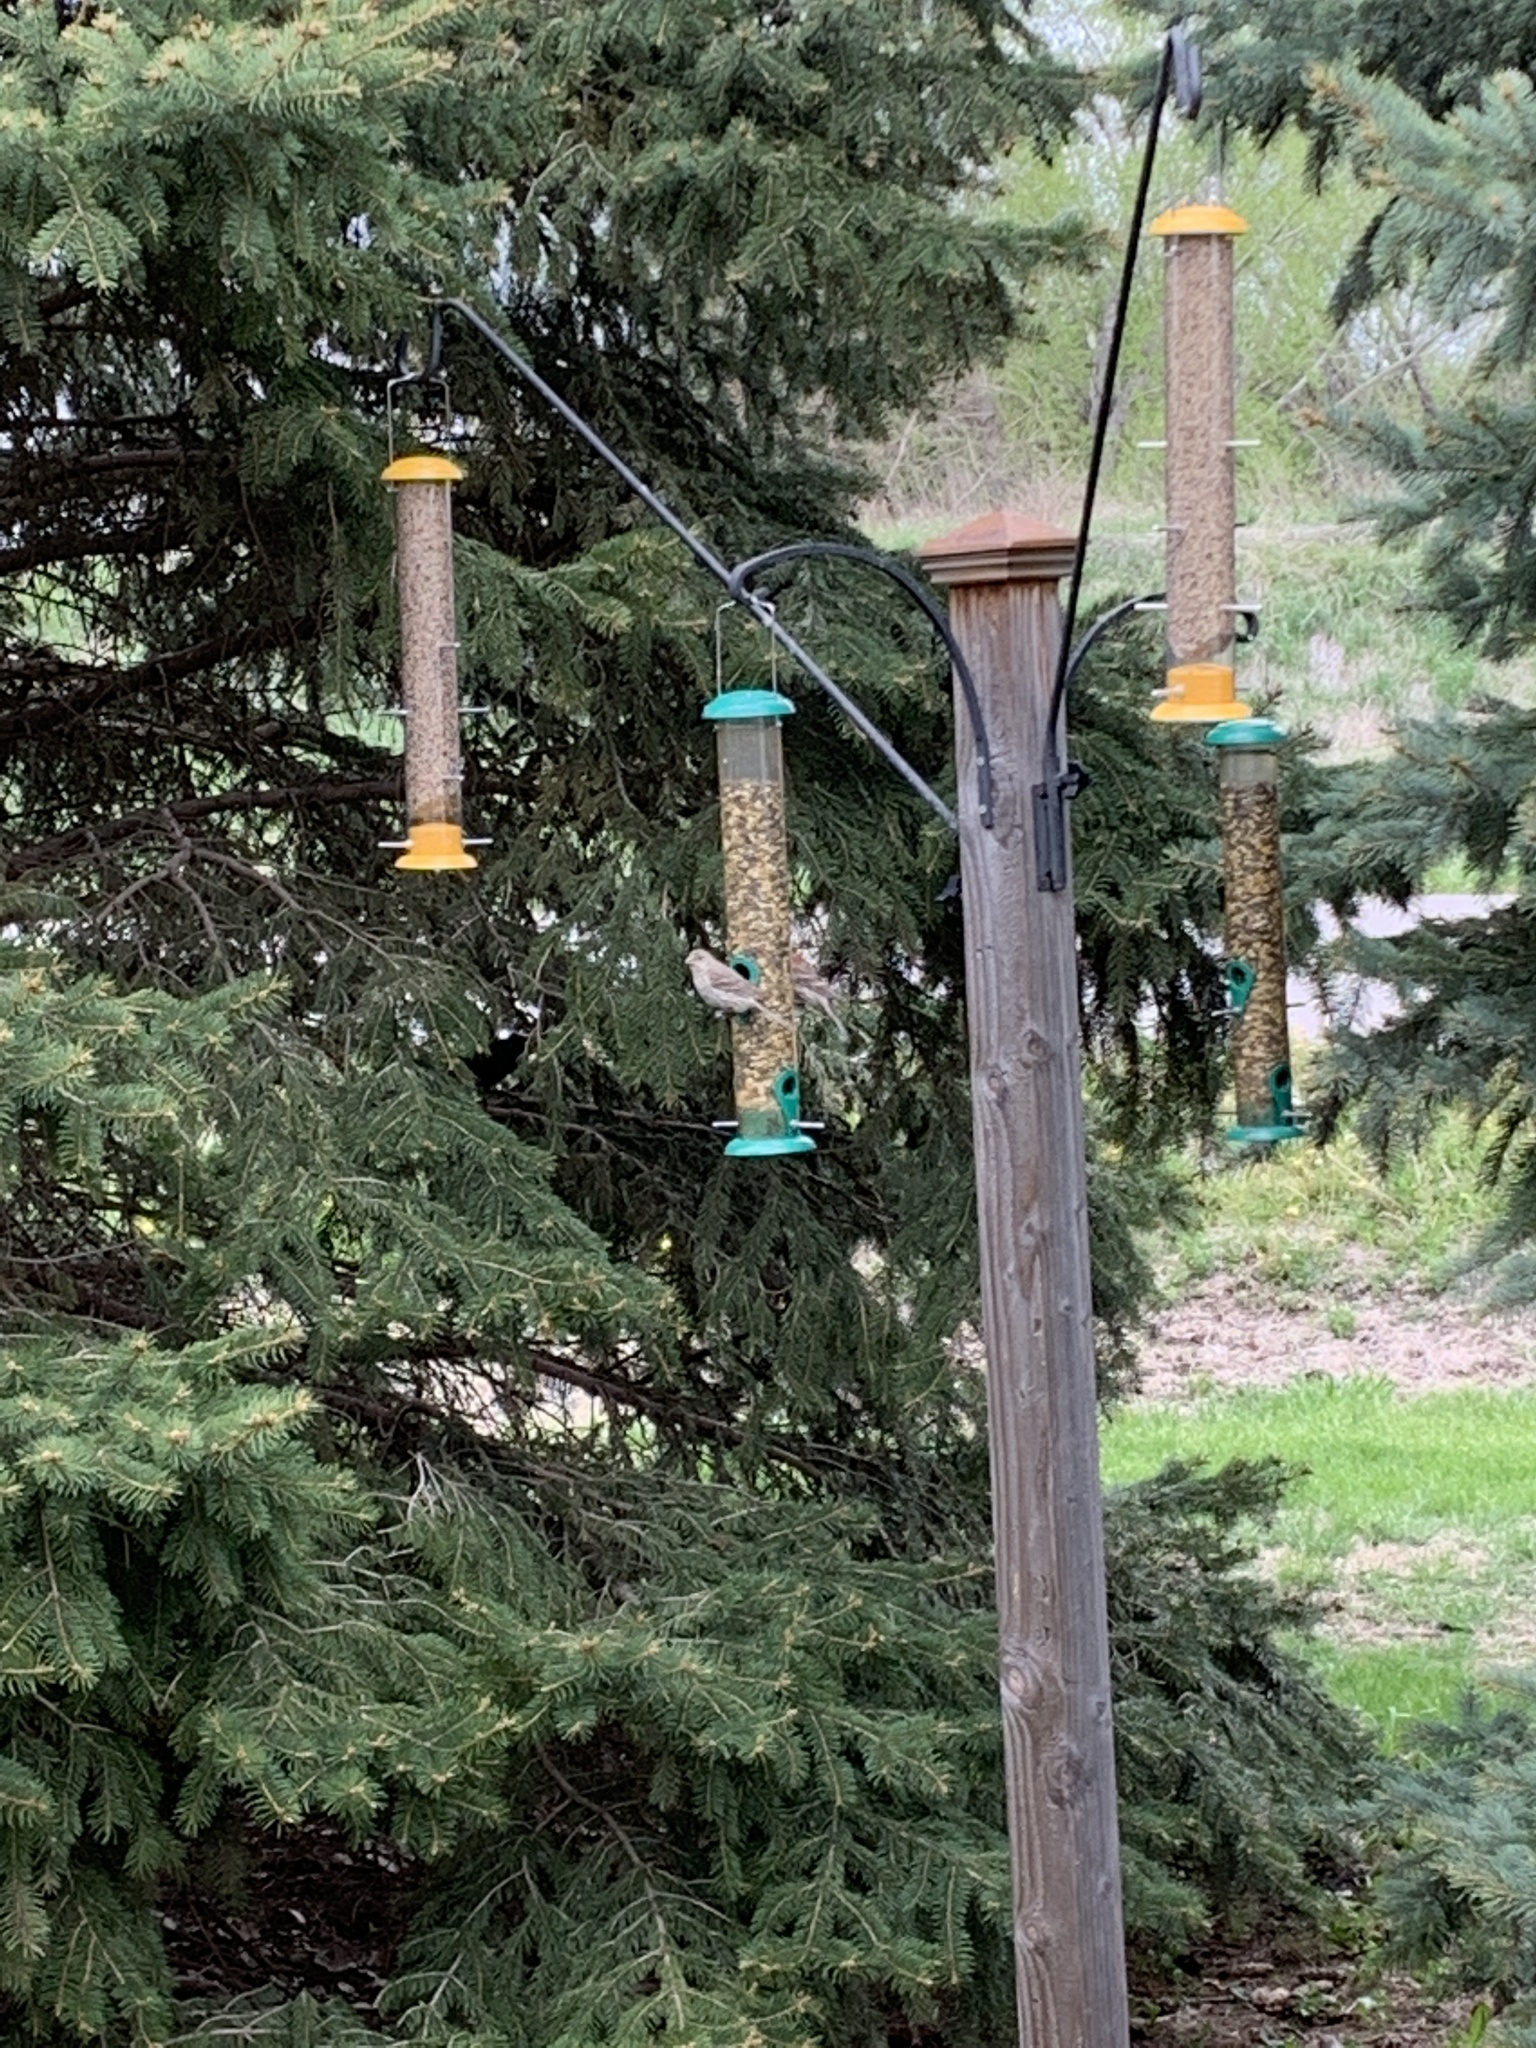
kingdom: Animalia
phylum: Chordata
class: Aves
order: Passeriformes
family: Fringillidae
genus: Haemorhous
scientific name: Haemorhous mexicanus
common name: House finch
